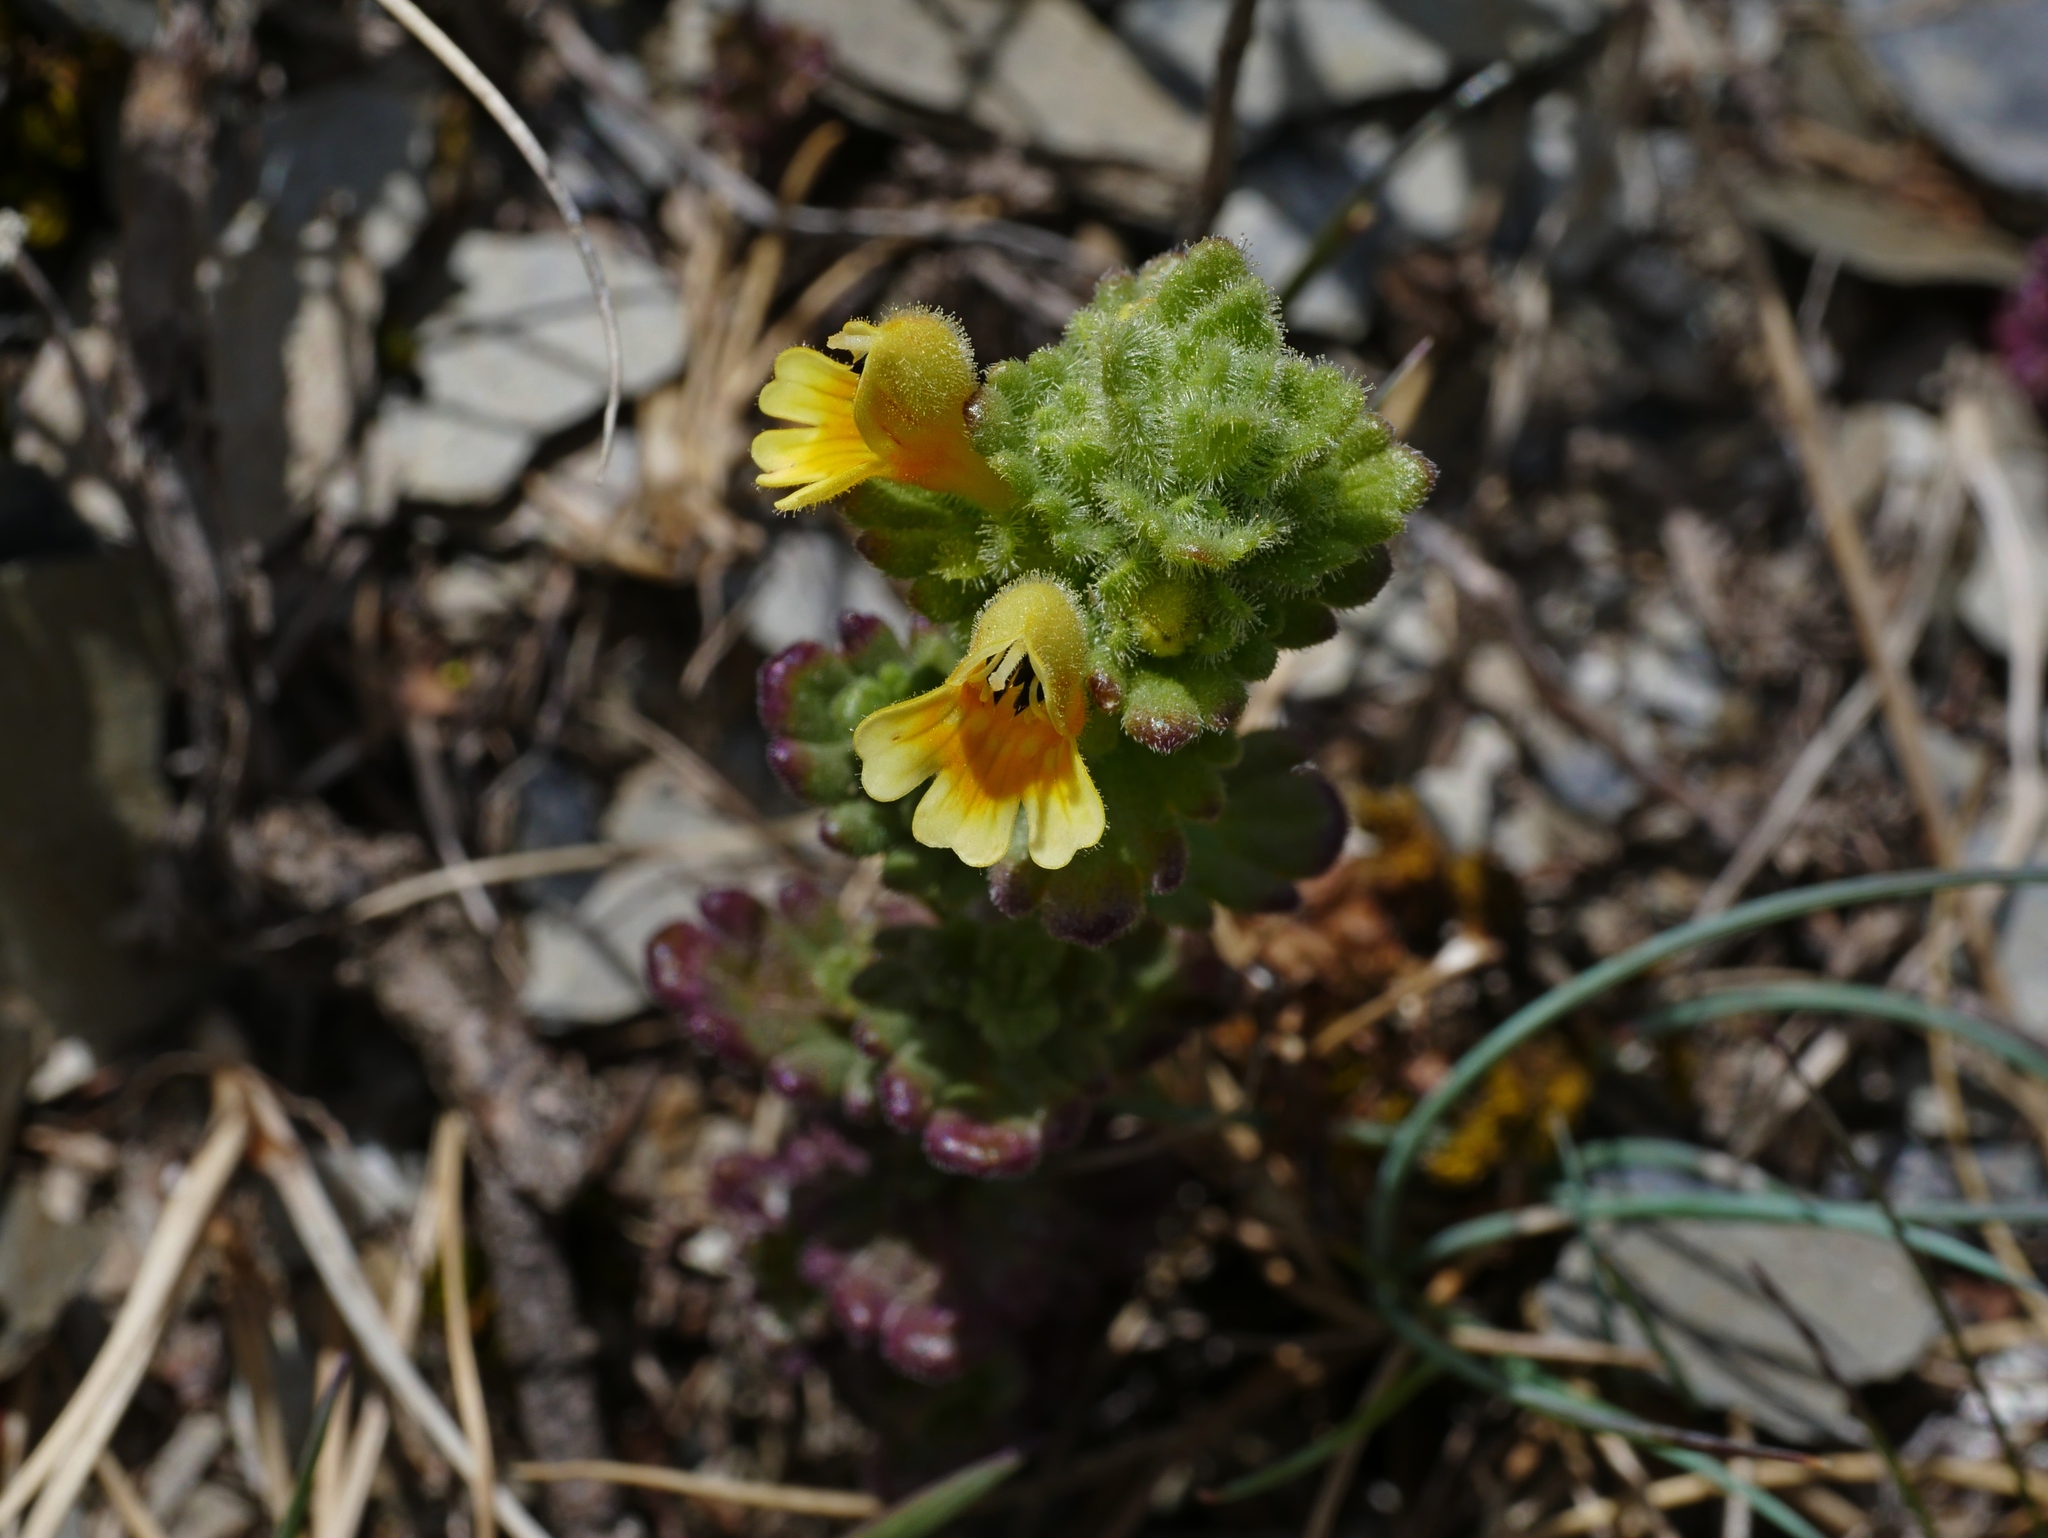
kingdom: Plantae
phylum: Tracheophyta
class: Magnoliopsida
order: Lamiales
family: Orobanchaceae
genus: Euphrasia
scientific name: Euphrasia nankotaizanensis
